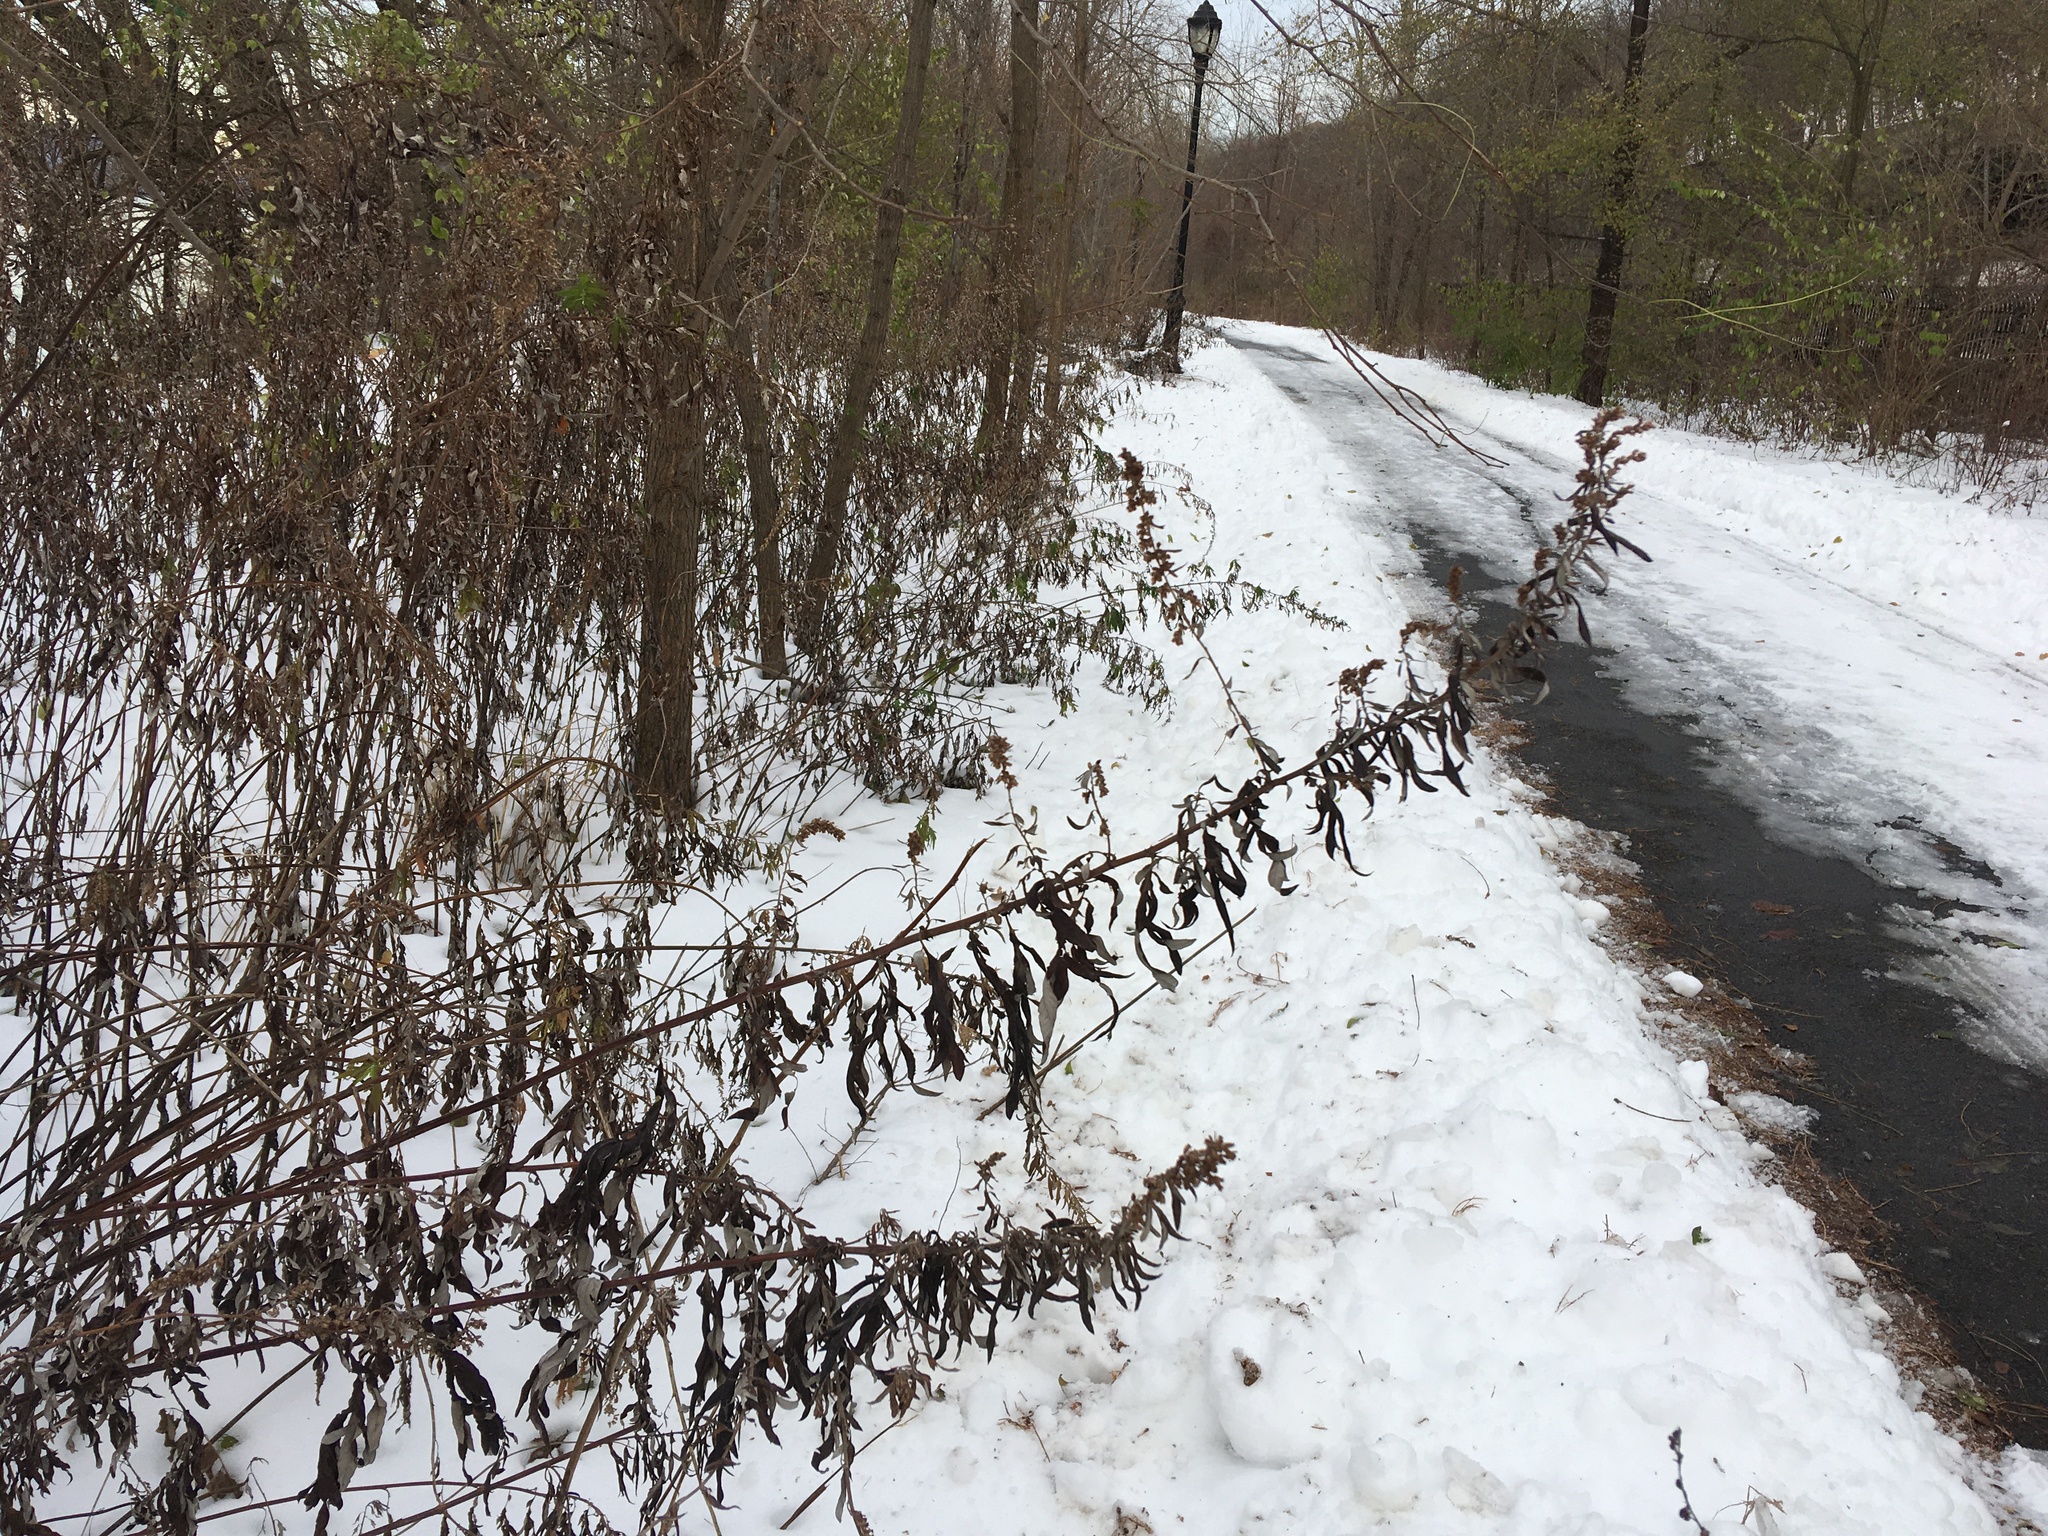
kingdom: Plantae
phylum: Tracheophyta
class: Magnoliopsida
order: Asterales
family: Asteraceae
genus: Artemisia
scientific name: Artemisia vulgaris
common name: Mugwort
